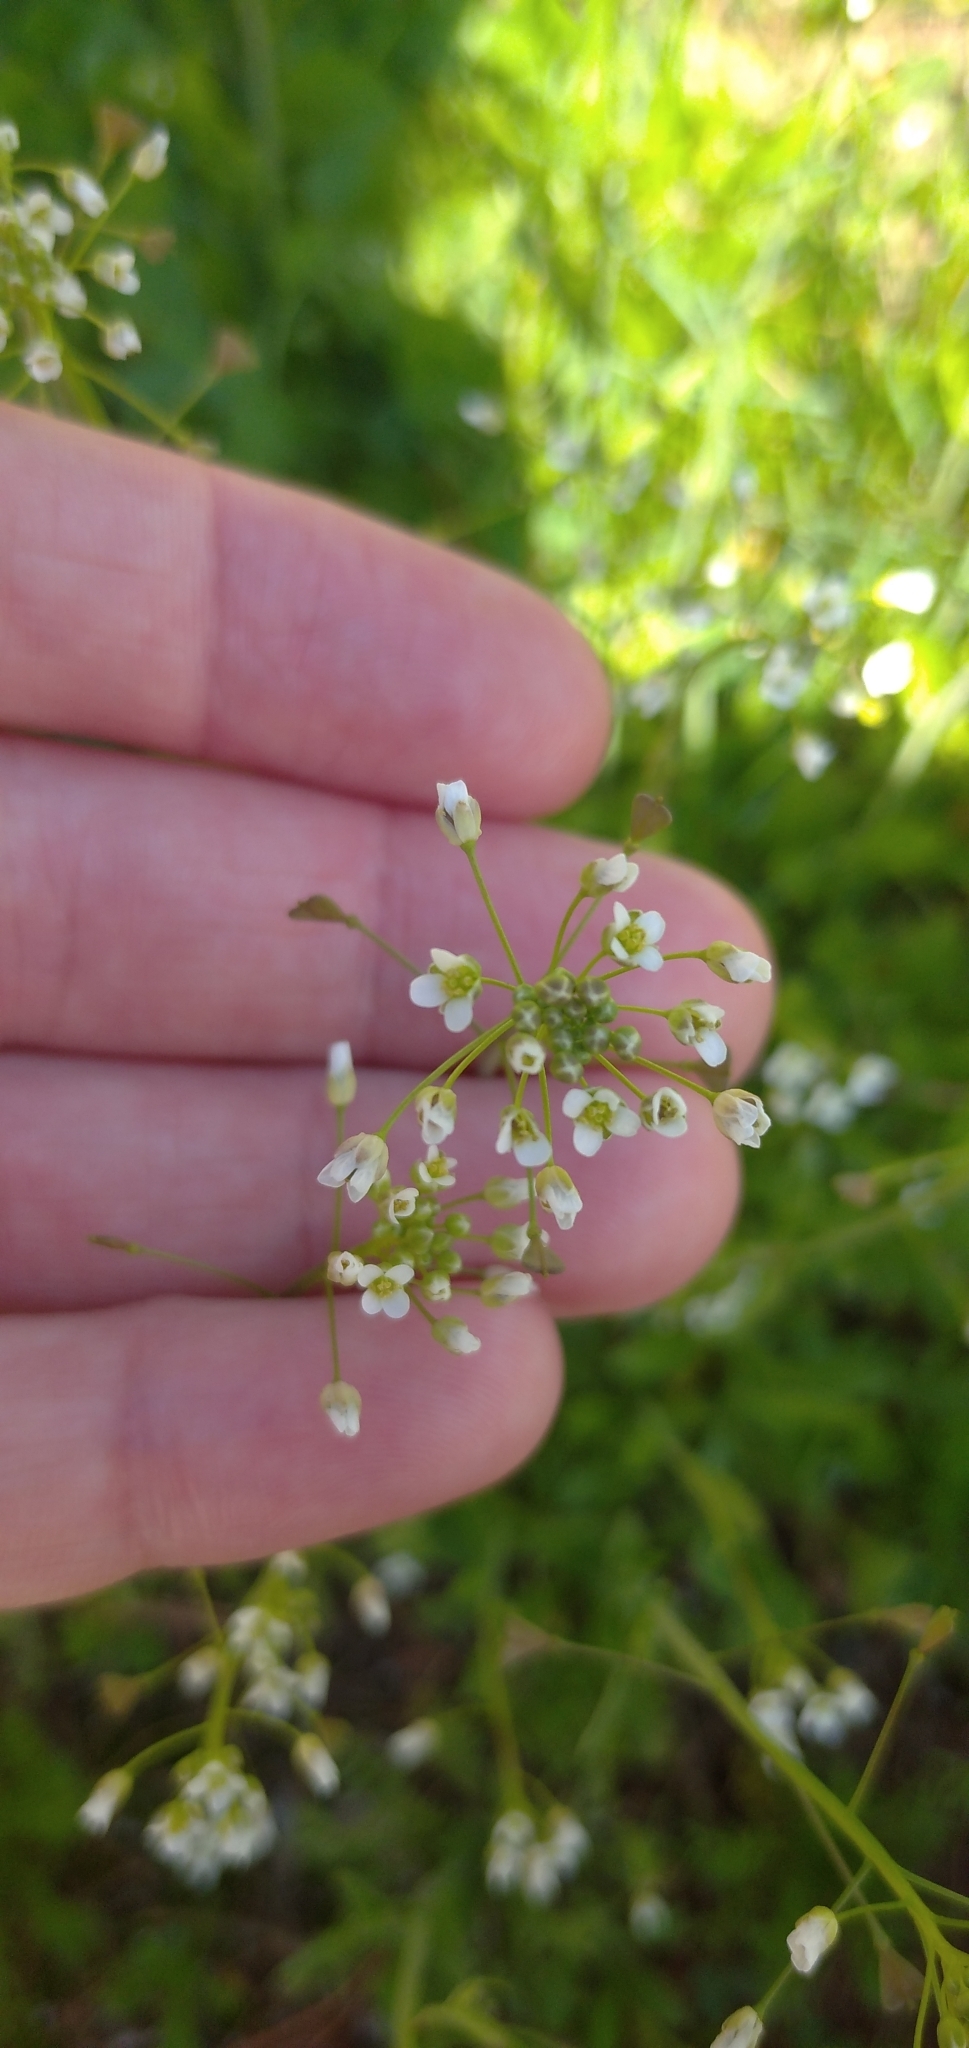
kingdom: Plantae
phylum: Tracheophyta
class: Magnoliopsida
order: Brassicales
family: Brassicaceae
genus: Capsella
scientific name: Capsella bursa-pastoris
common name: Shepherd's purse
